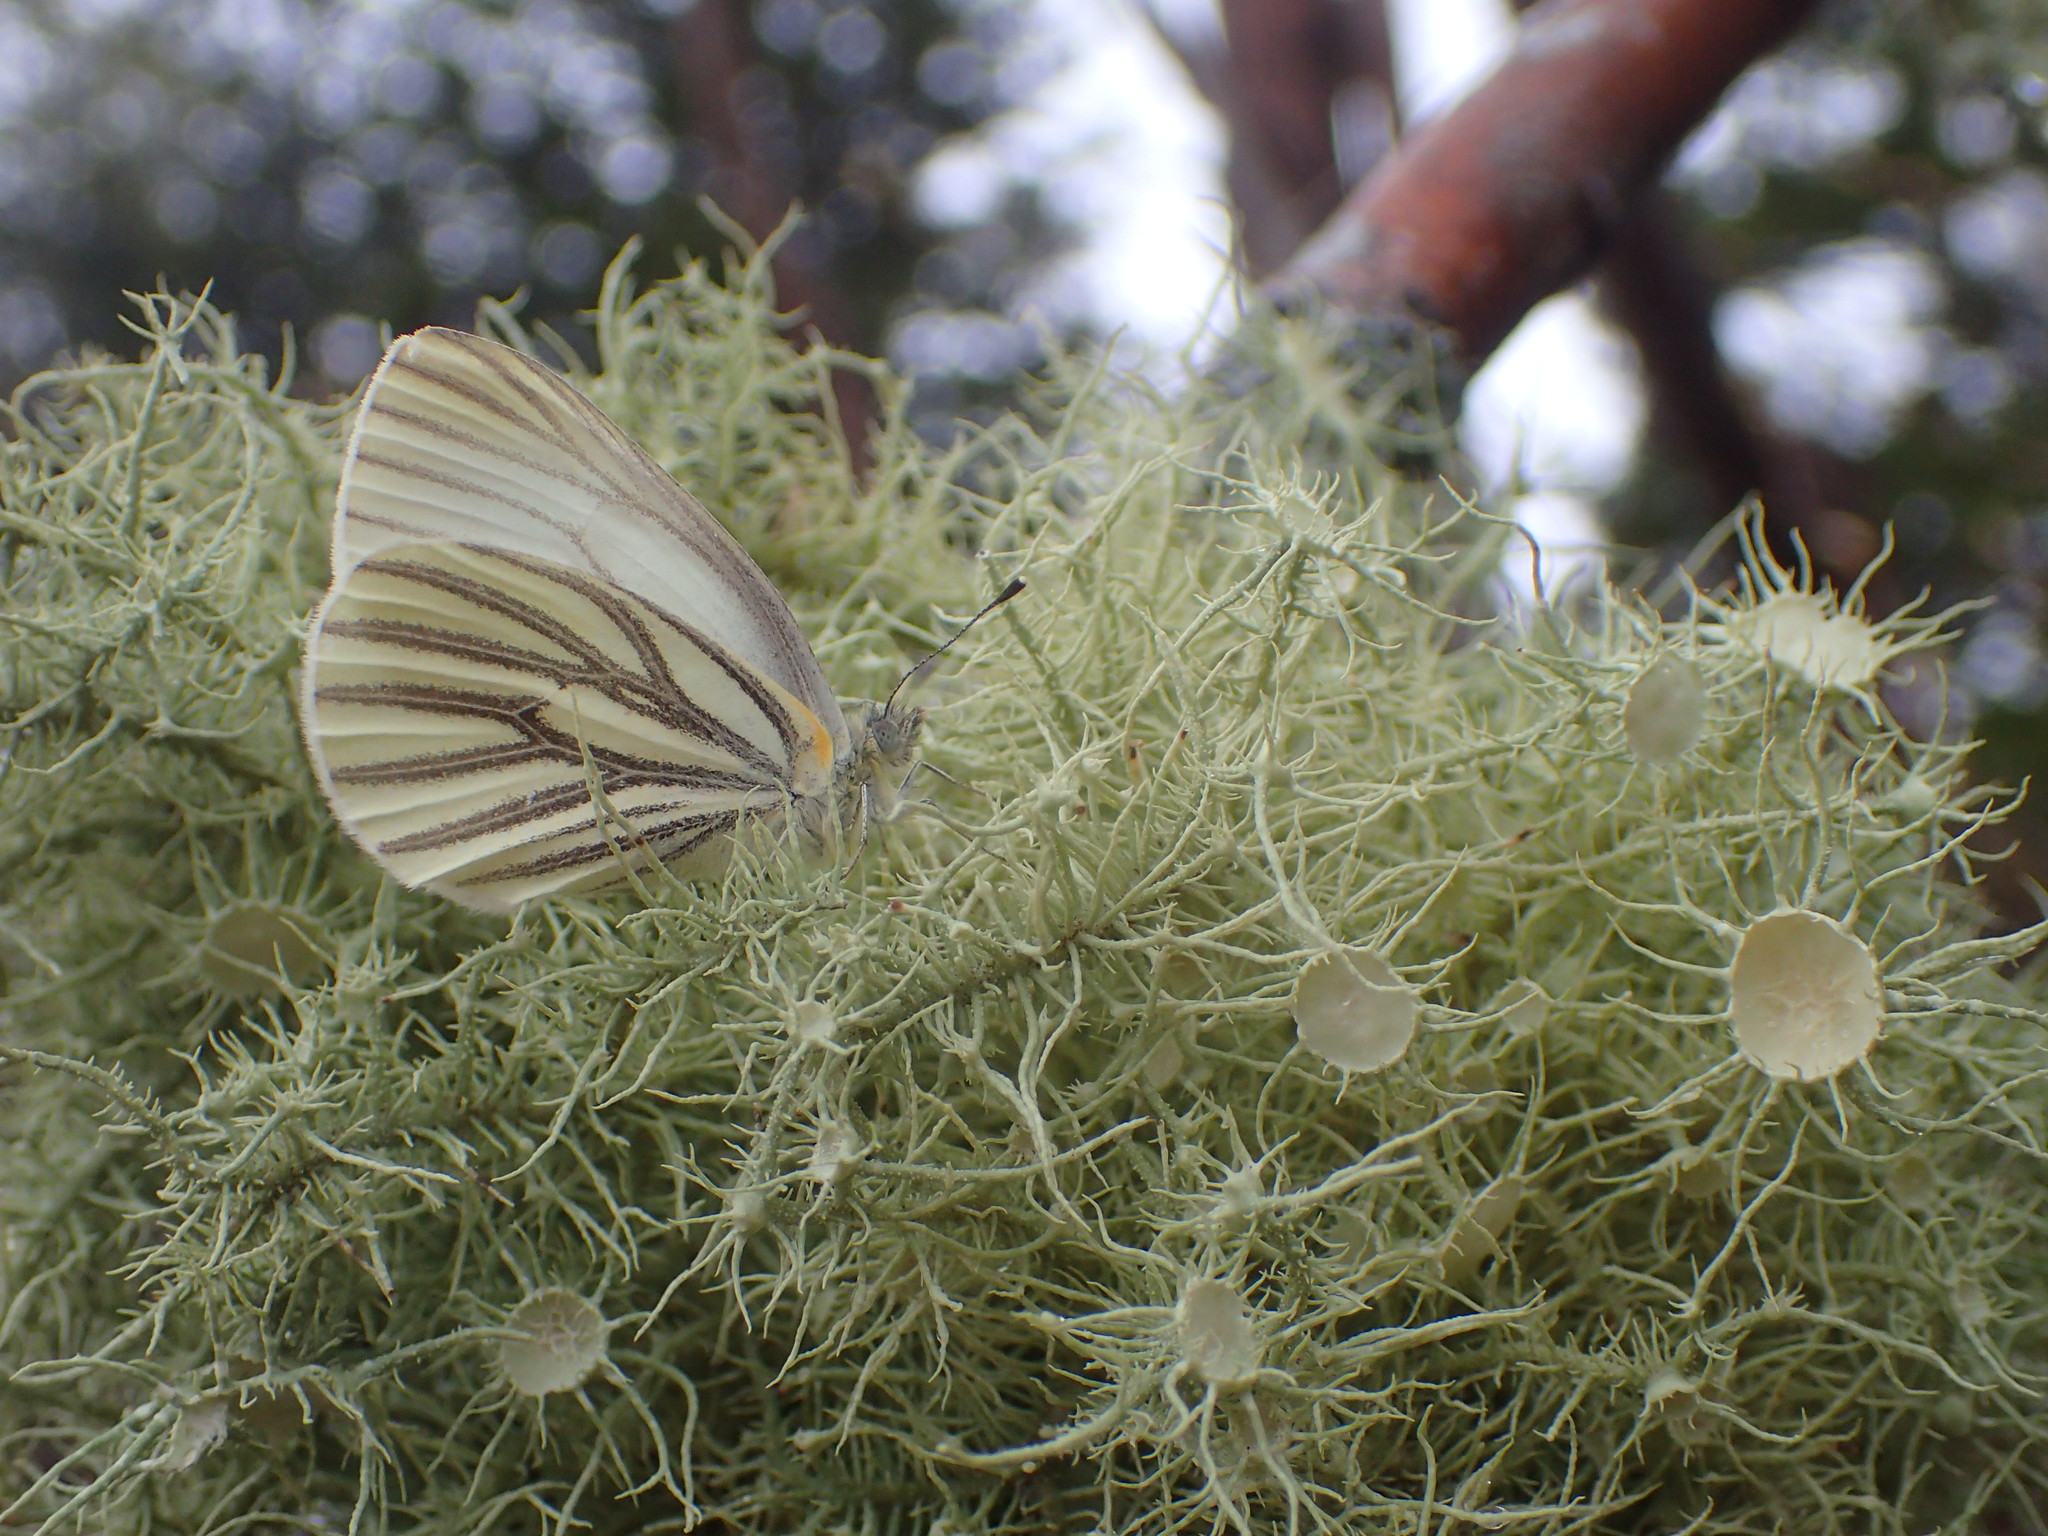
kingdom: Animalia
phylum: Arthropoda
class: Insecta
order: Lepidoptera
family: Pieridae
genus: Pieris
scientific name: Pieris oleracea
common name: Mustard white
